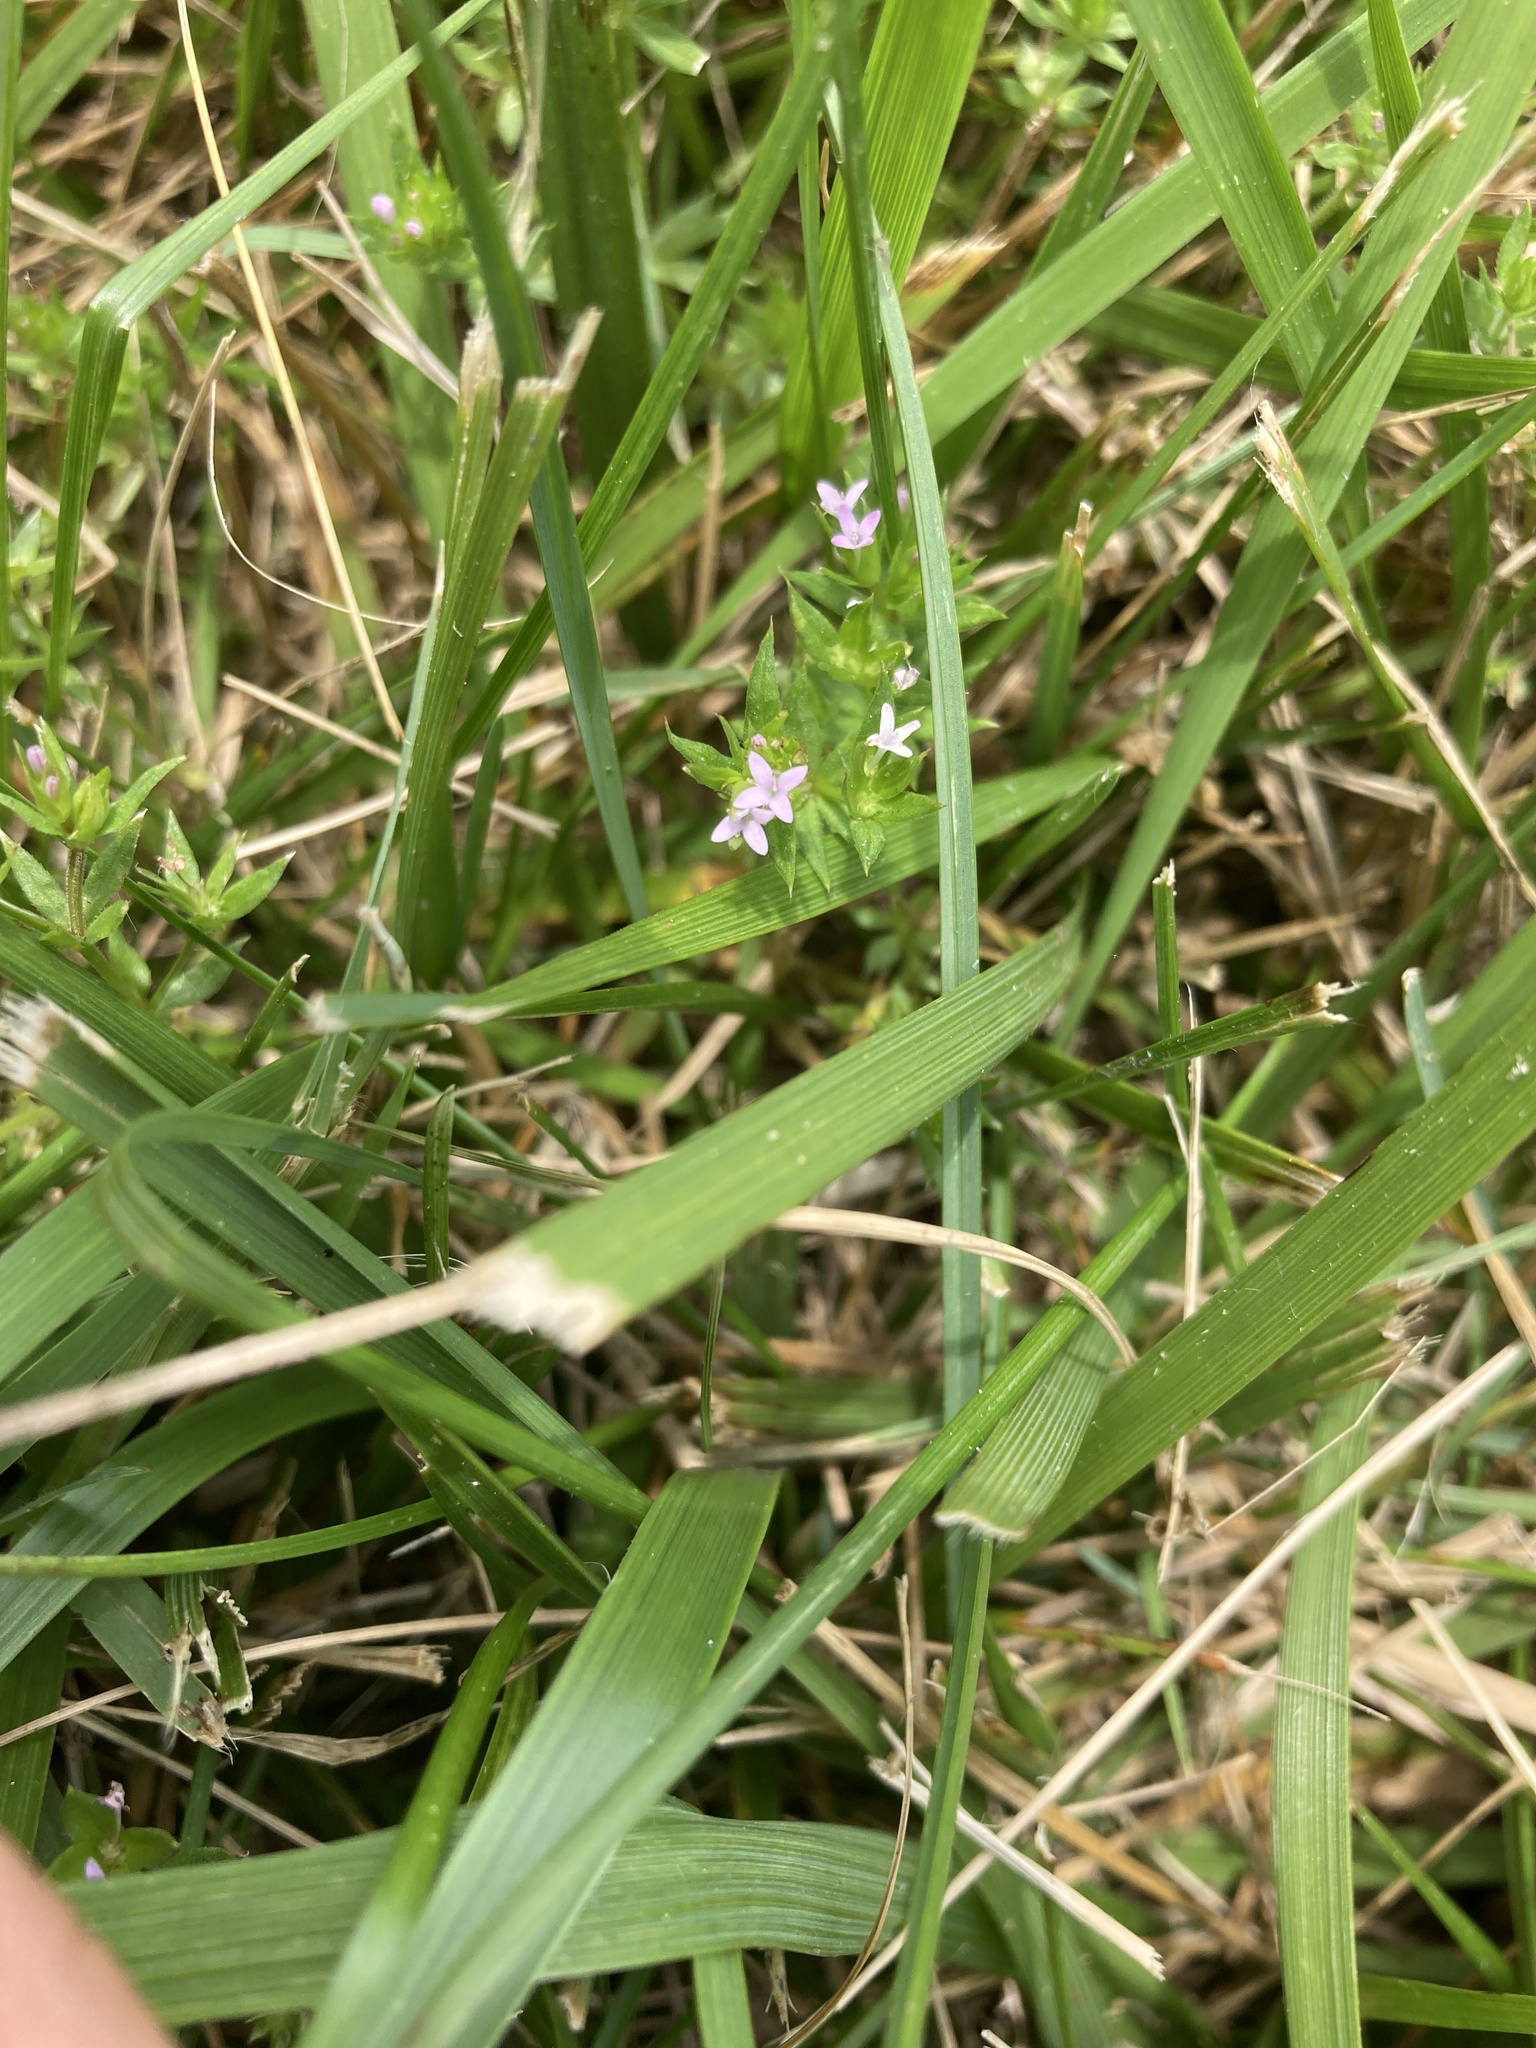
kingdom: Plantae
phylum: Tracheophyta
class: Magnoliopsida
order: Gentianales
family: Rubiaceae
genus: Sherardia
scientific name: Sherardia arvensis
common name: Field madder
